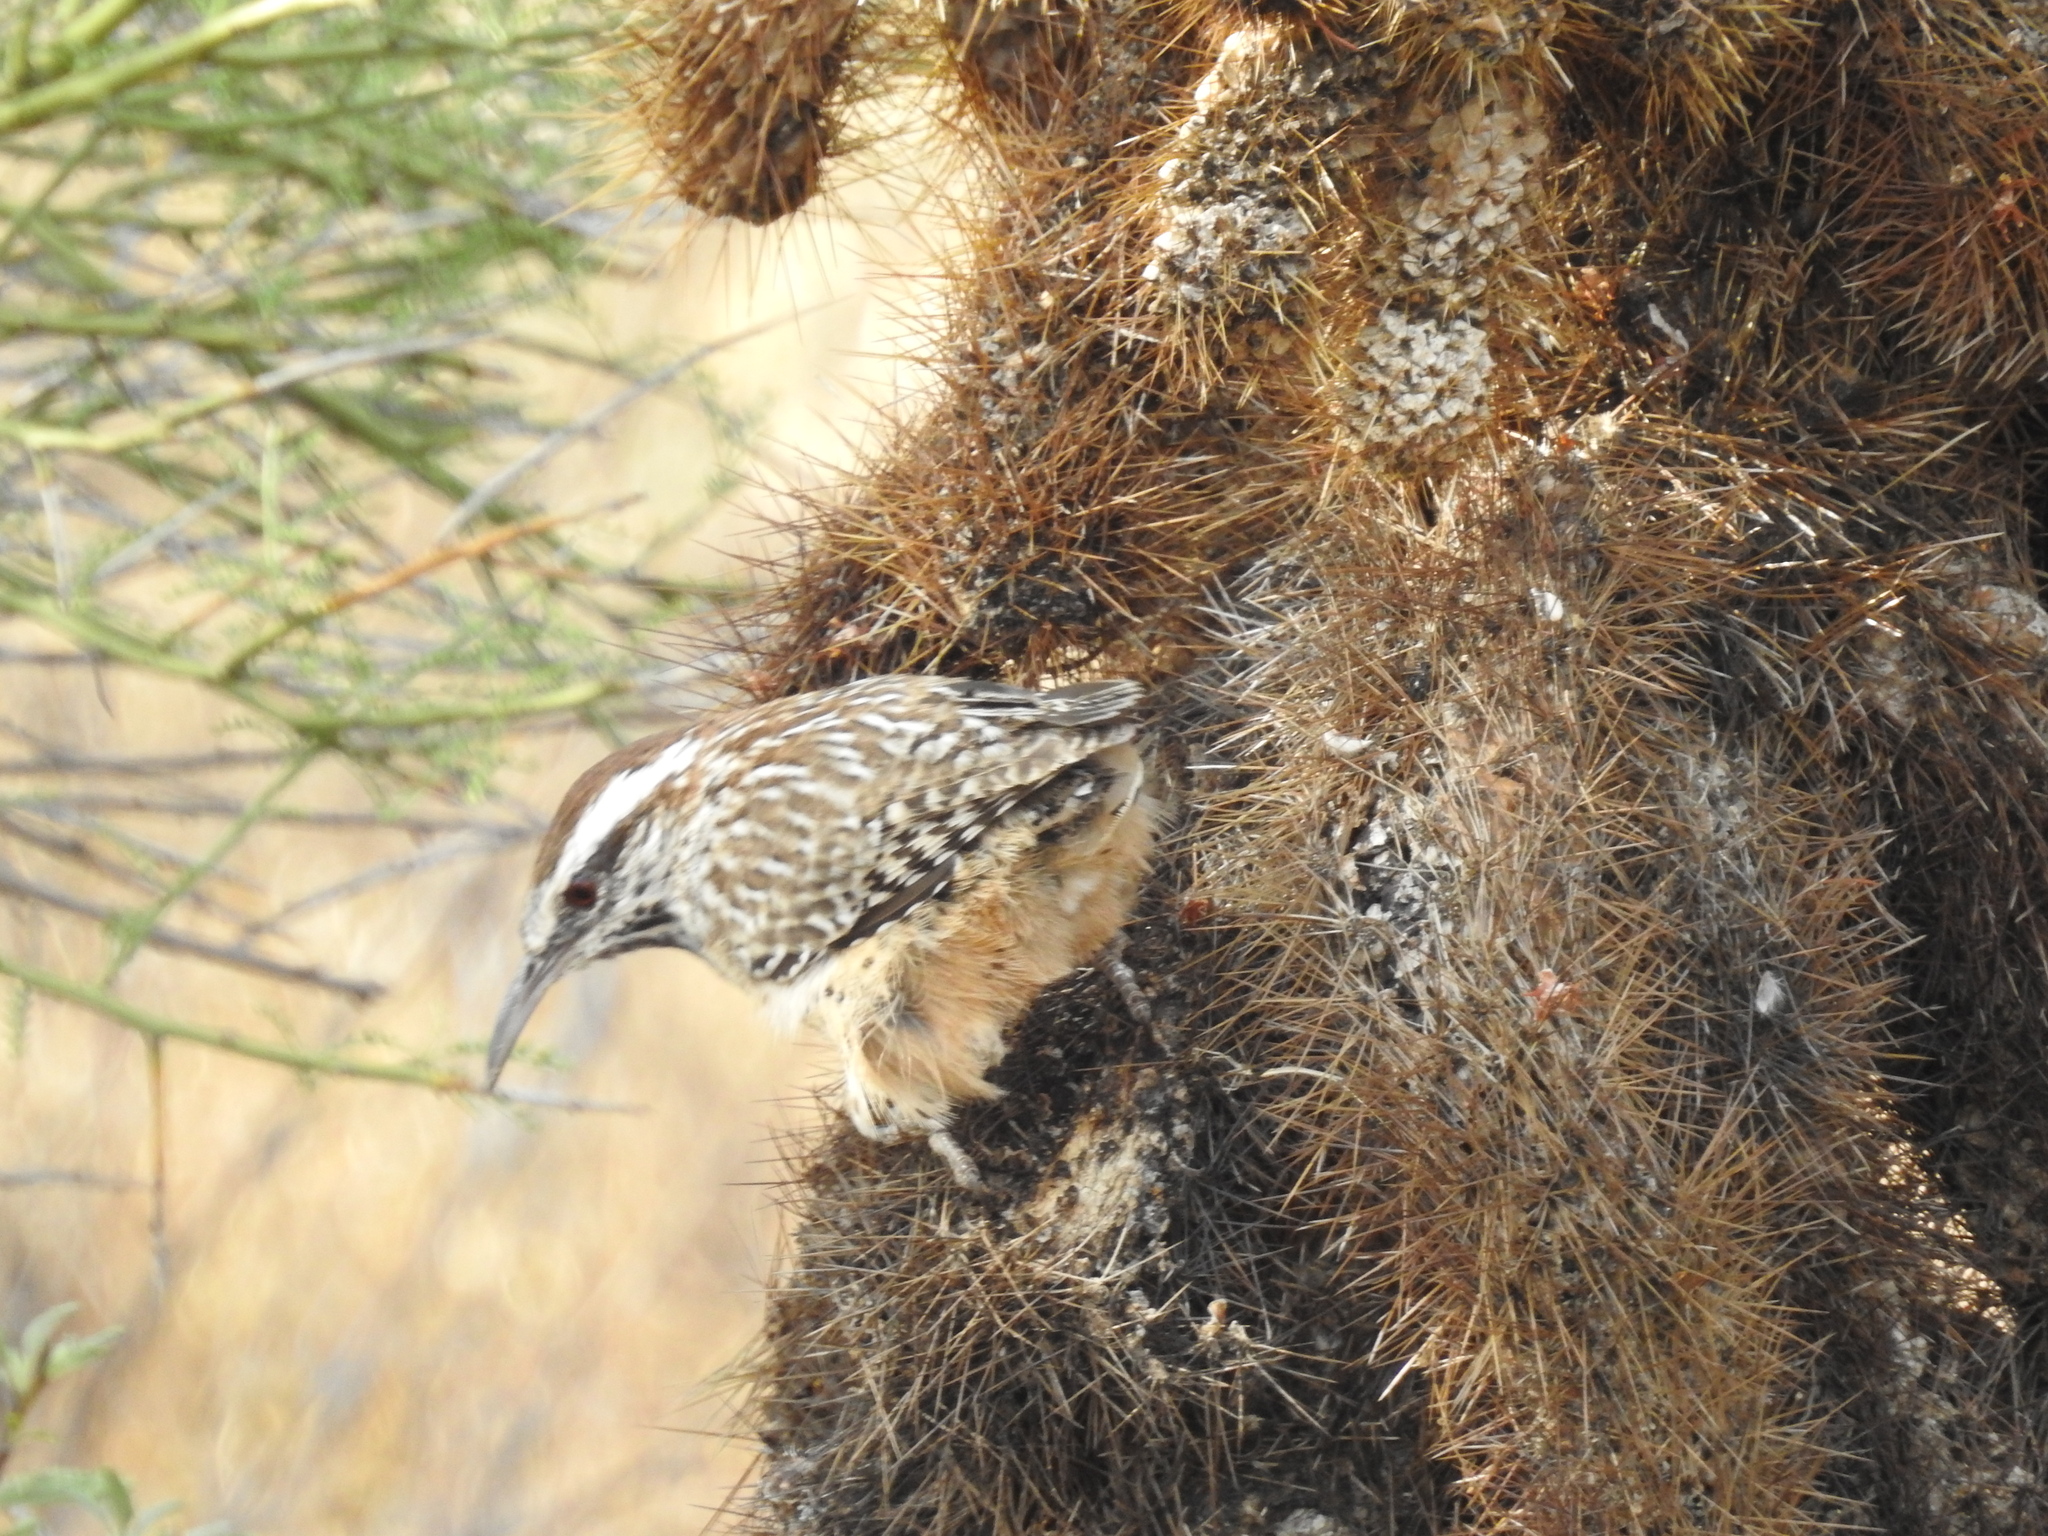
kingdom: Animalia
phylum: Chordata
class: Aves
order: Passeriformes
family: Troglodytidae
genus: Campylorhynchus
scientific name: Campylorhynchus brunneicapillus
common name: Cactus wren
